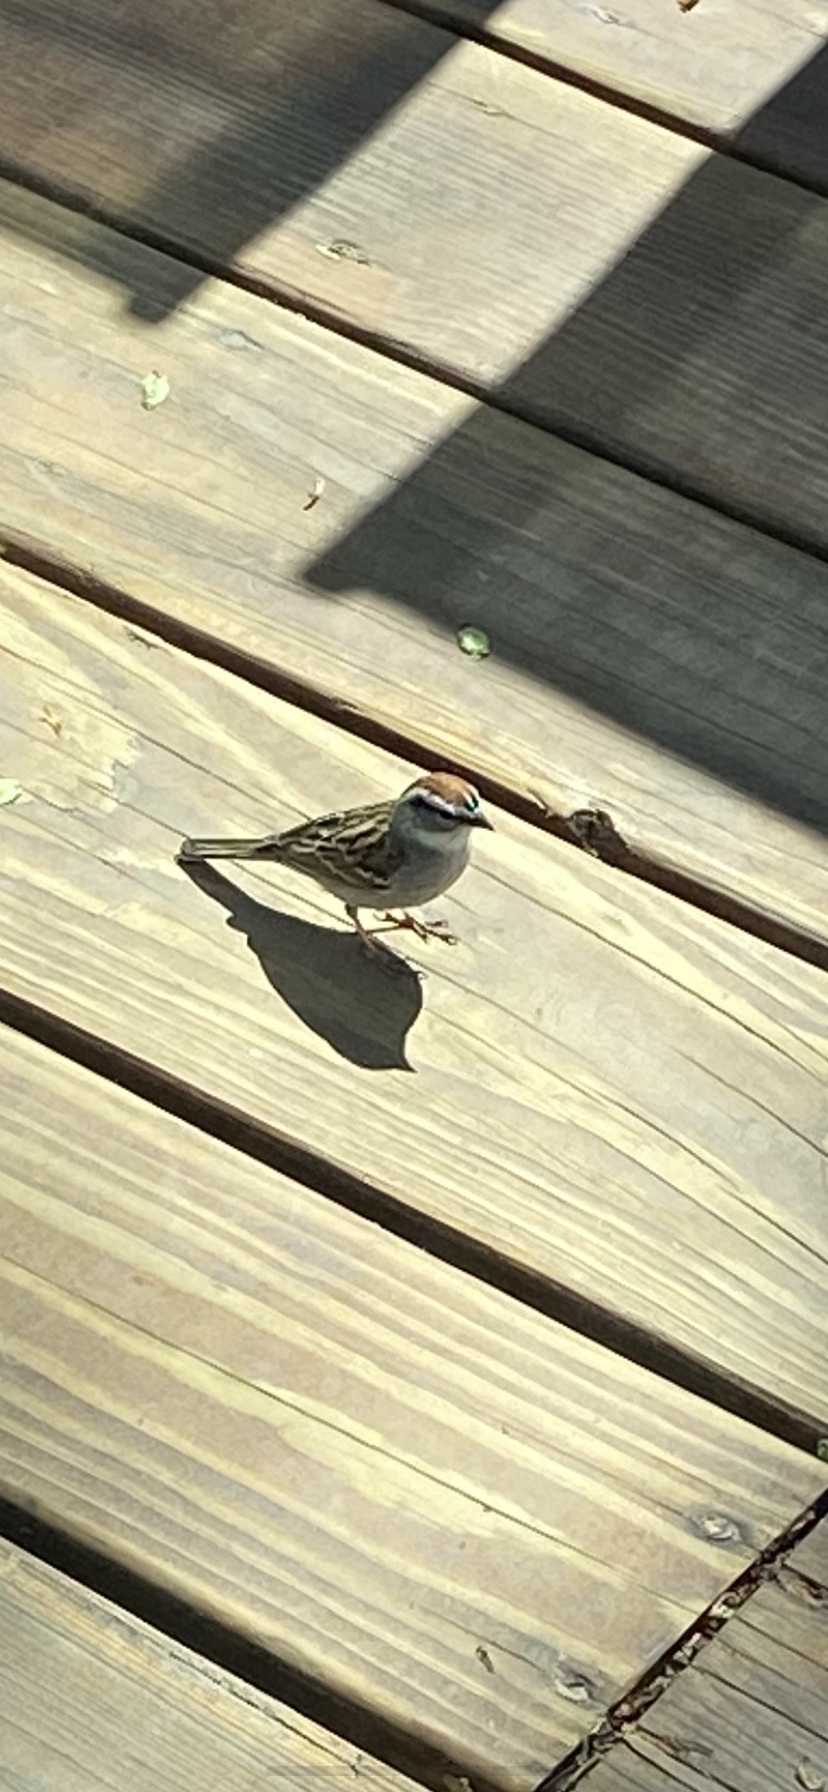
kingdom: Animalia
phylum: Chordata
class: Aves
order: Passeriformes
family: Passerellidae
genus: Spizella
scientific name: Spizella passerina
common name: Chipping sparrow
